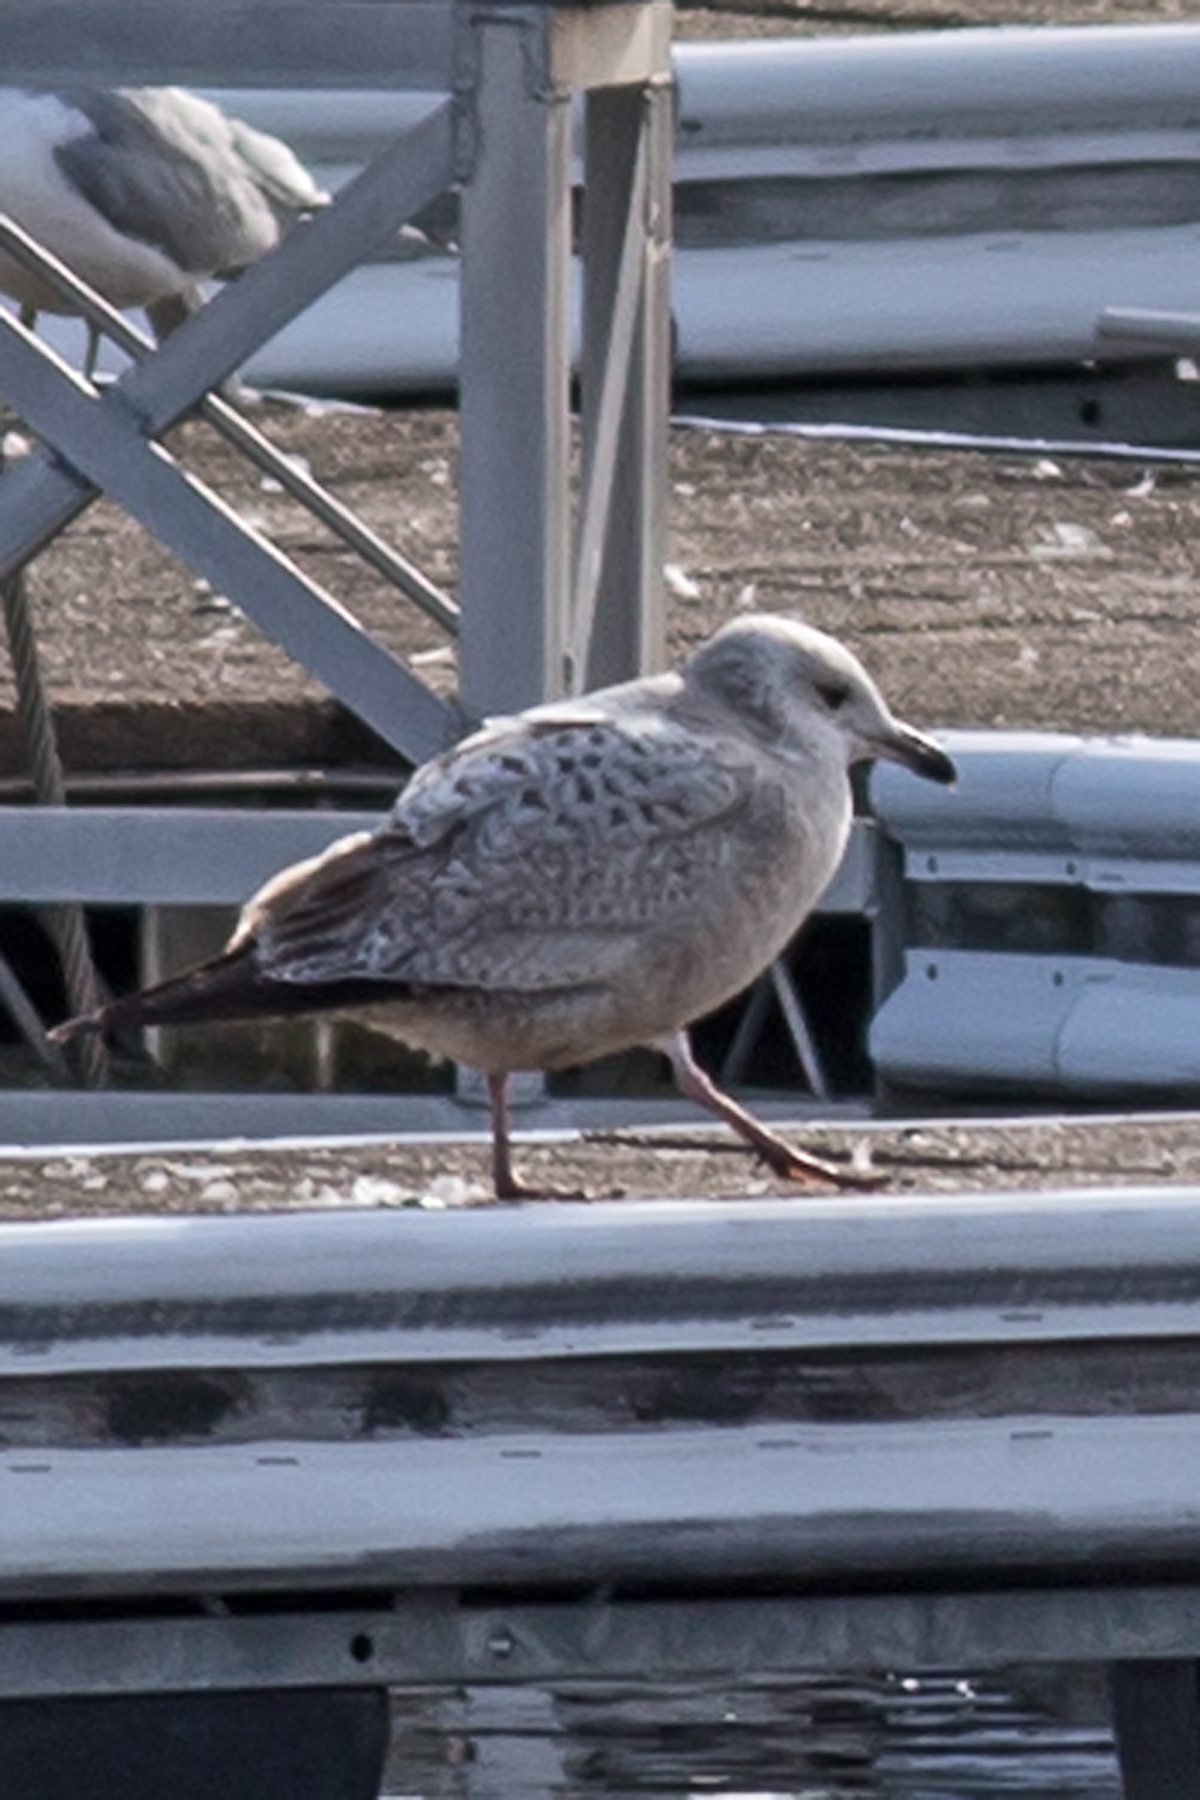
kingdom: Animalia
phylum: Chordata
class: Aves
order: Charadriiformes
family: Laridae
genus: Larus
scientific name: Larus argentatus
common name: Herring gull
